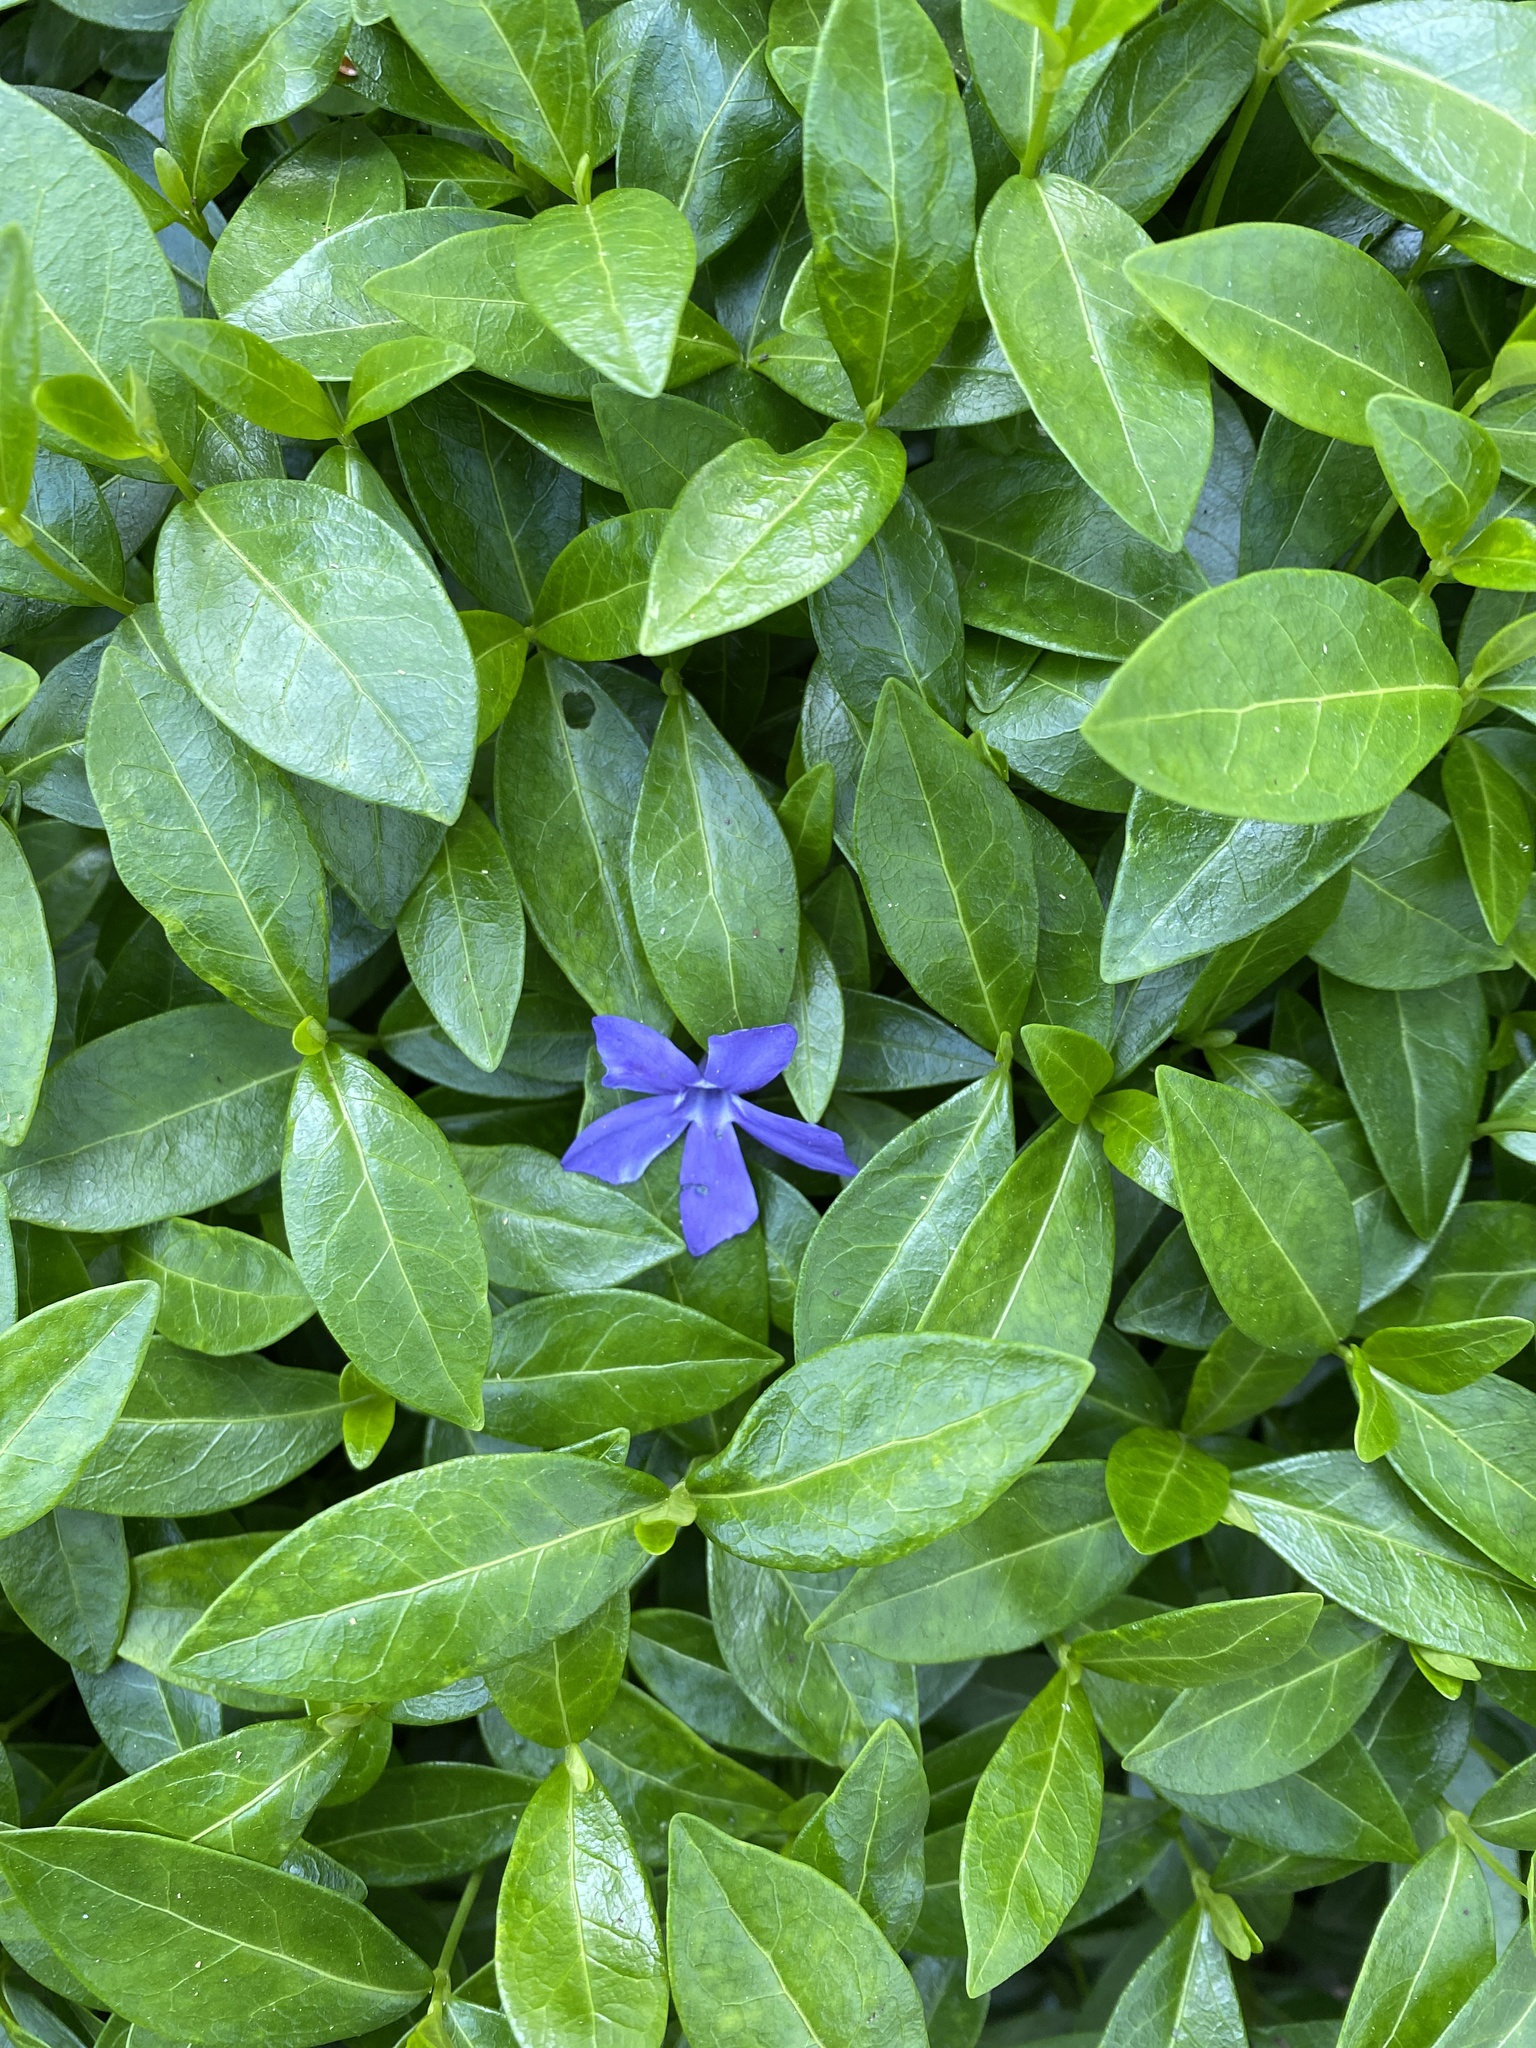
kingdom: Plantae
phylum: Tracheophyta
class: Magnoliopsida
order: Gentianales
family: Apocynaceae
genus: Vinca
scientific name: Vinca minor
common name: Lesser periwinkle
